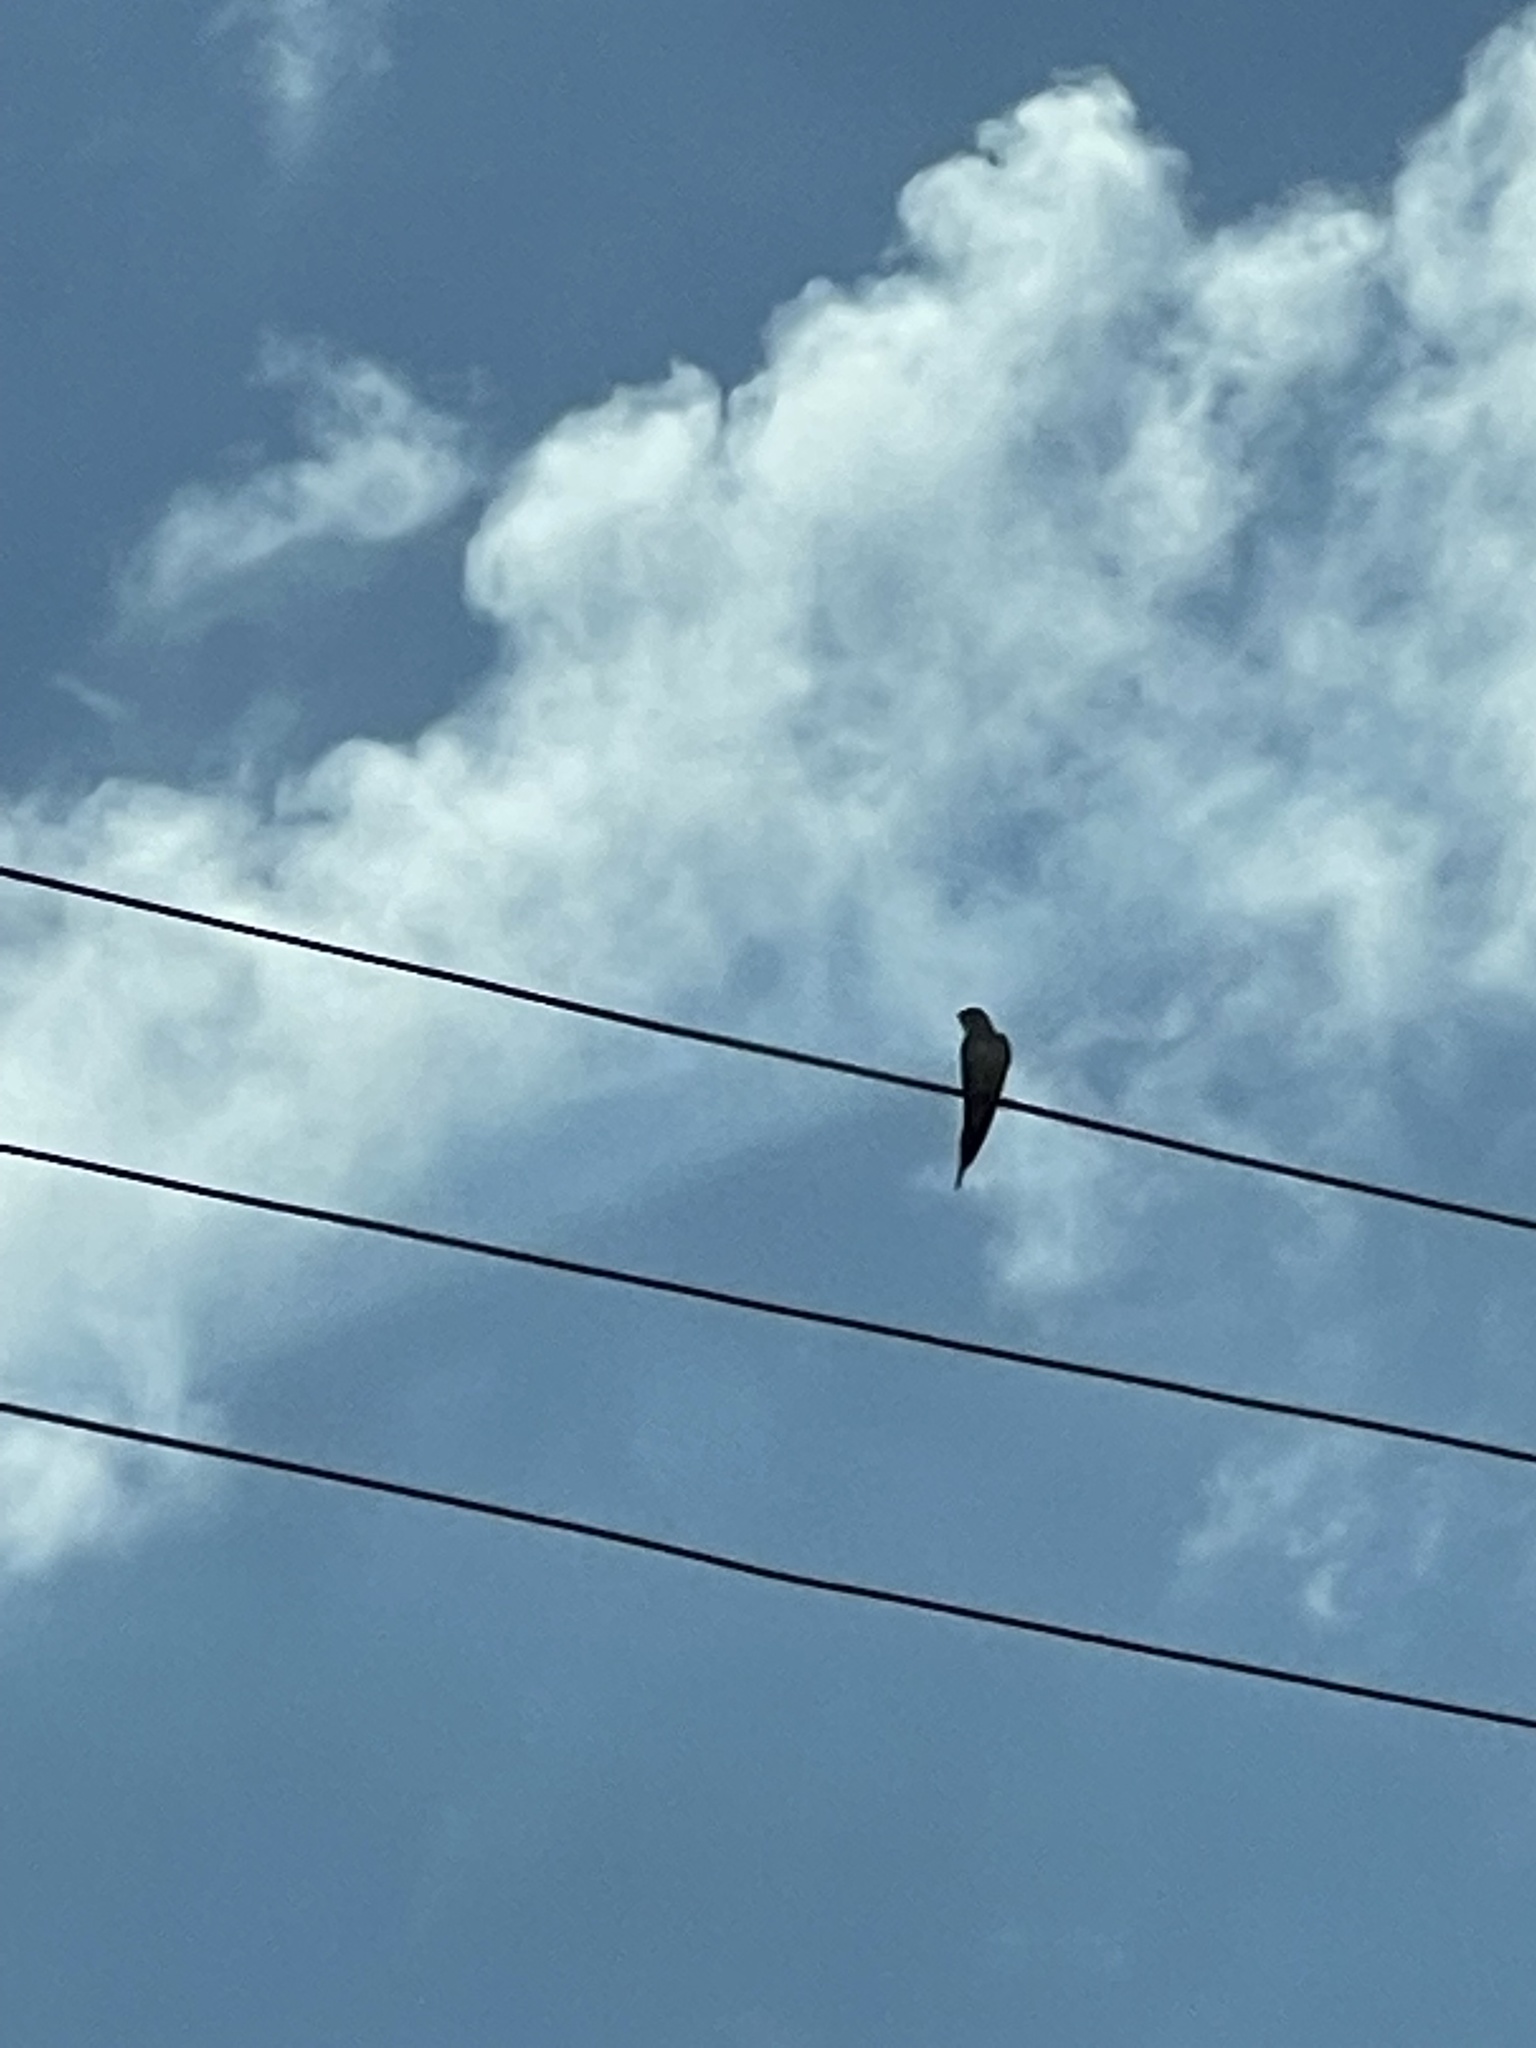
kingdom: Animalia
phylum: Chordata
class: Aves
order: Passeriformes
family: Hirundinidae
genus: Hirundo
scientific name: Hirundo rustica
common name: Barn swallow
